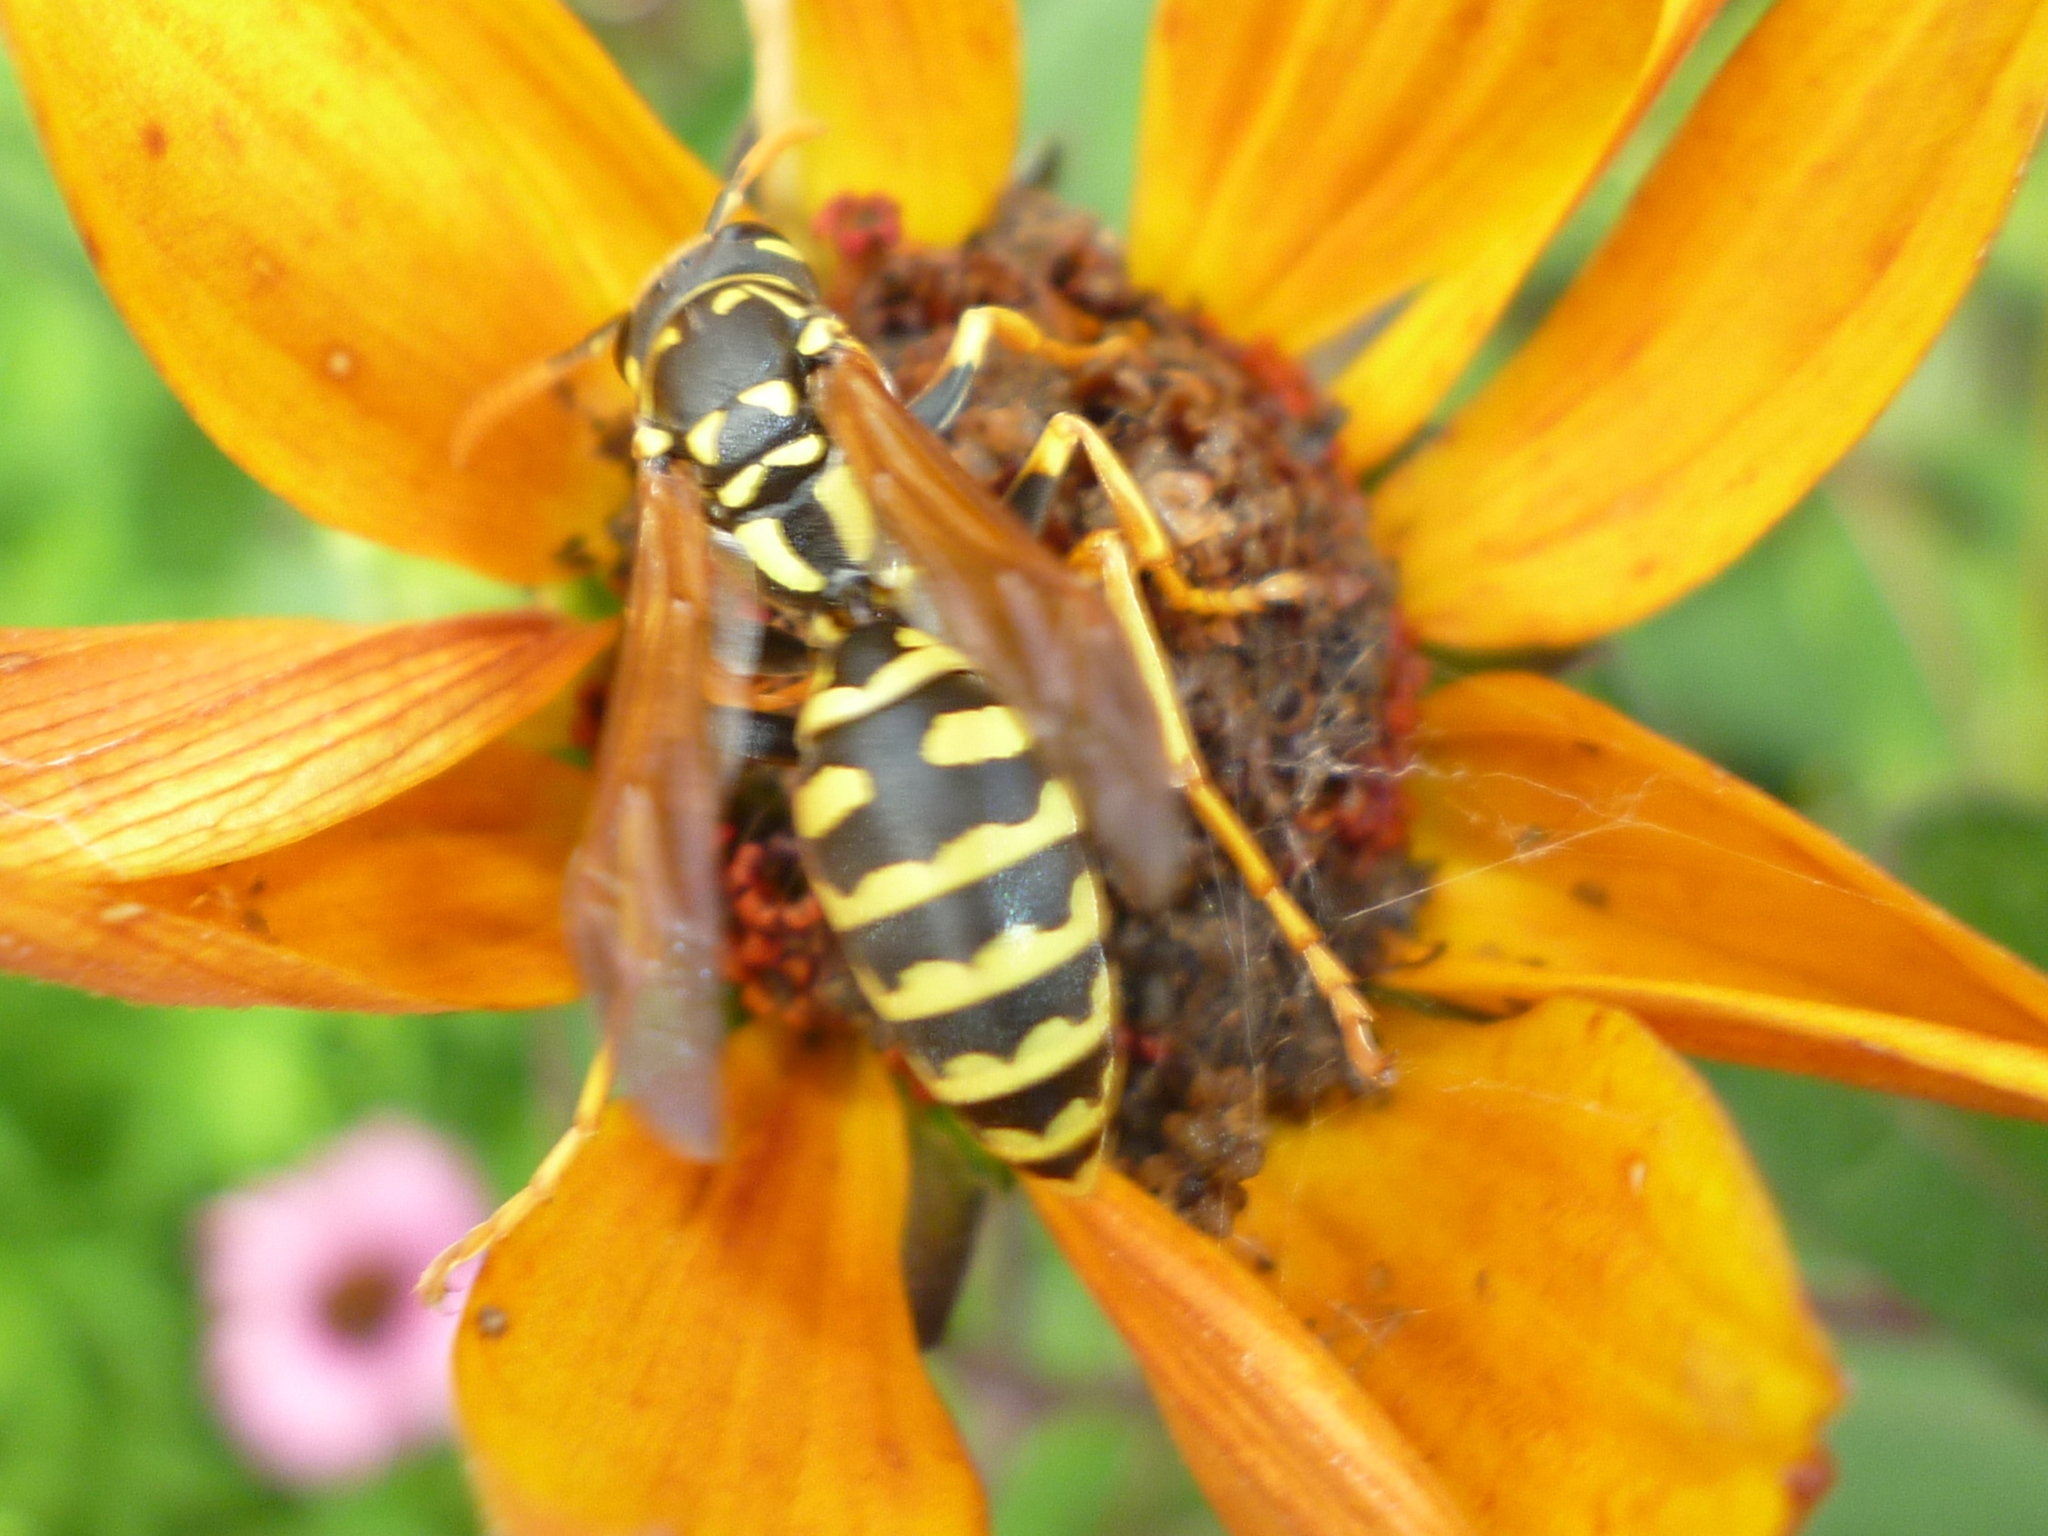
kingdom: Animalia
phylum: Arthropoda
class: Insecta
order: Hymenoptera
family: Eumenidae
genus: Polistes
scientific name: Polistes dominula
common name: Paper wasp
